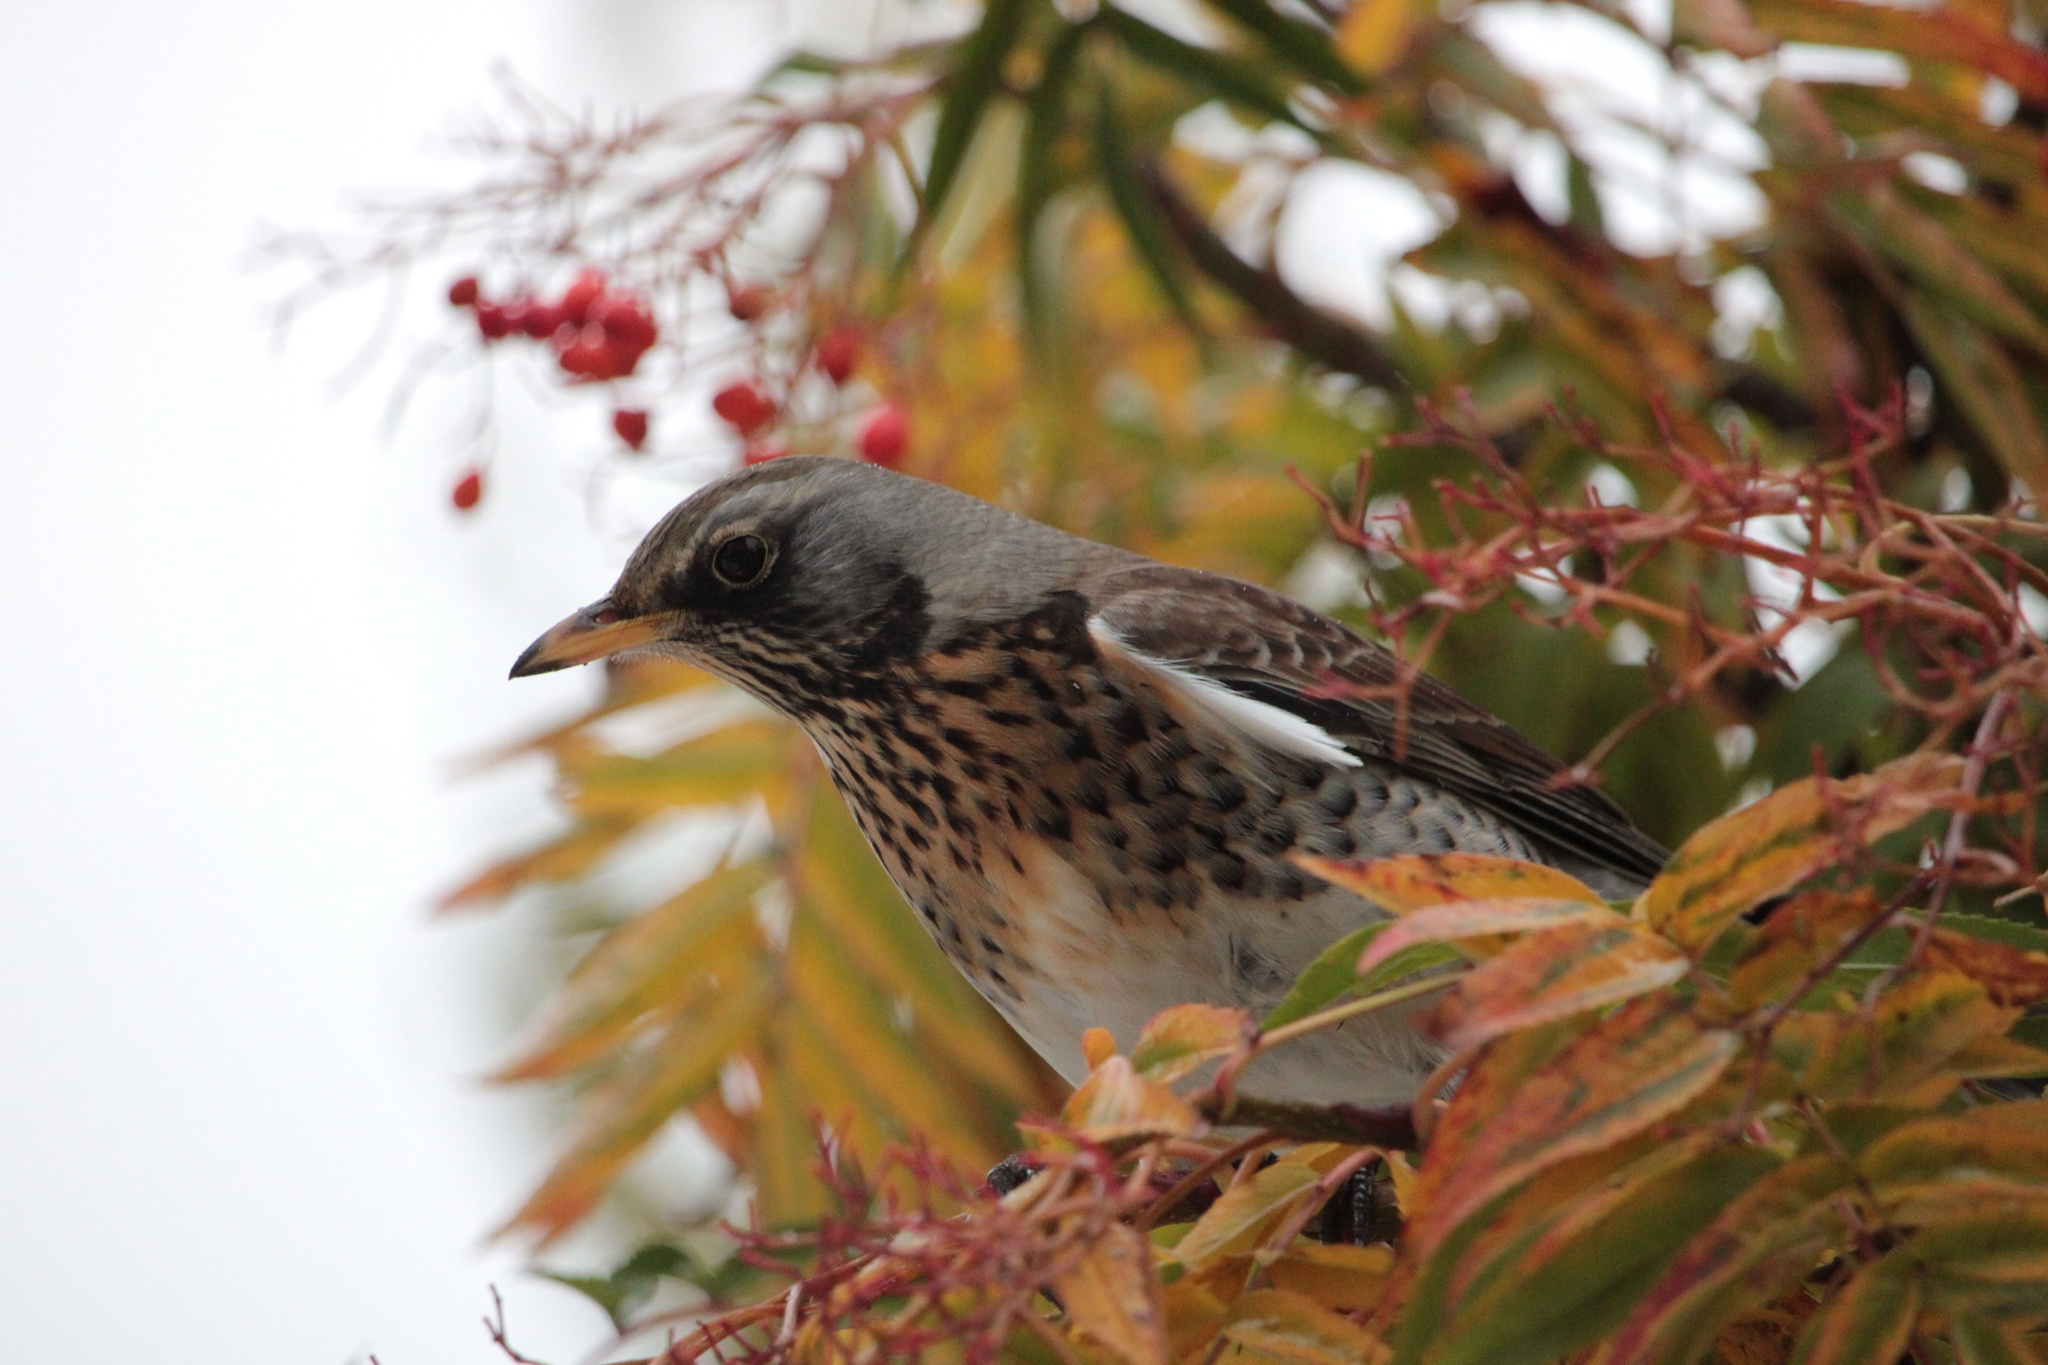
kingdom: Animalia
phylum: Chordata
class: Aves
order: Passeriformes
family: Turdidae
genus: Turdus
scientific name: Turdus pilaris
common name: Fieldfare
